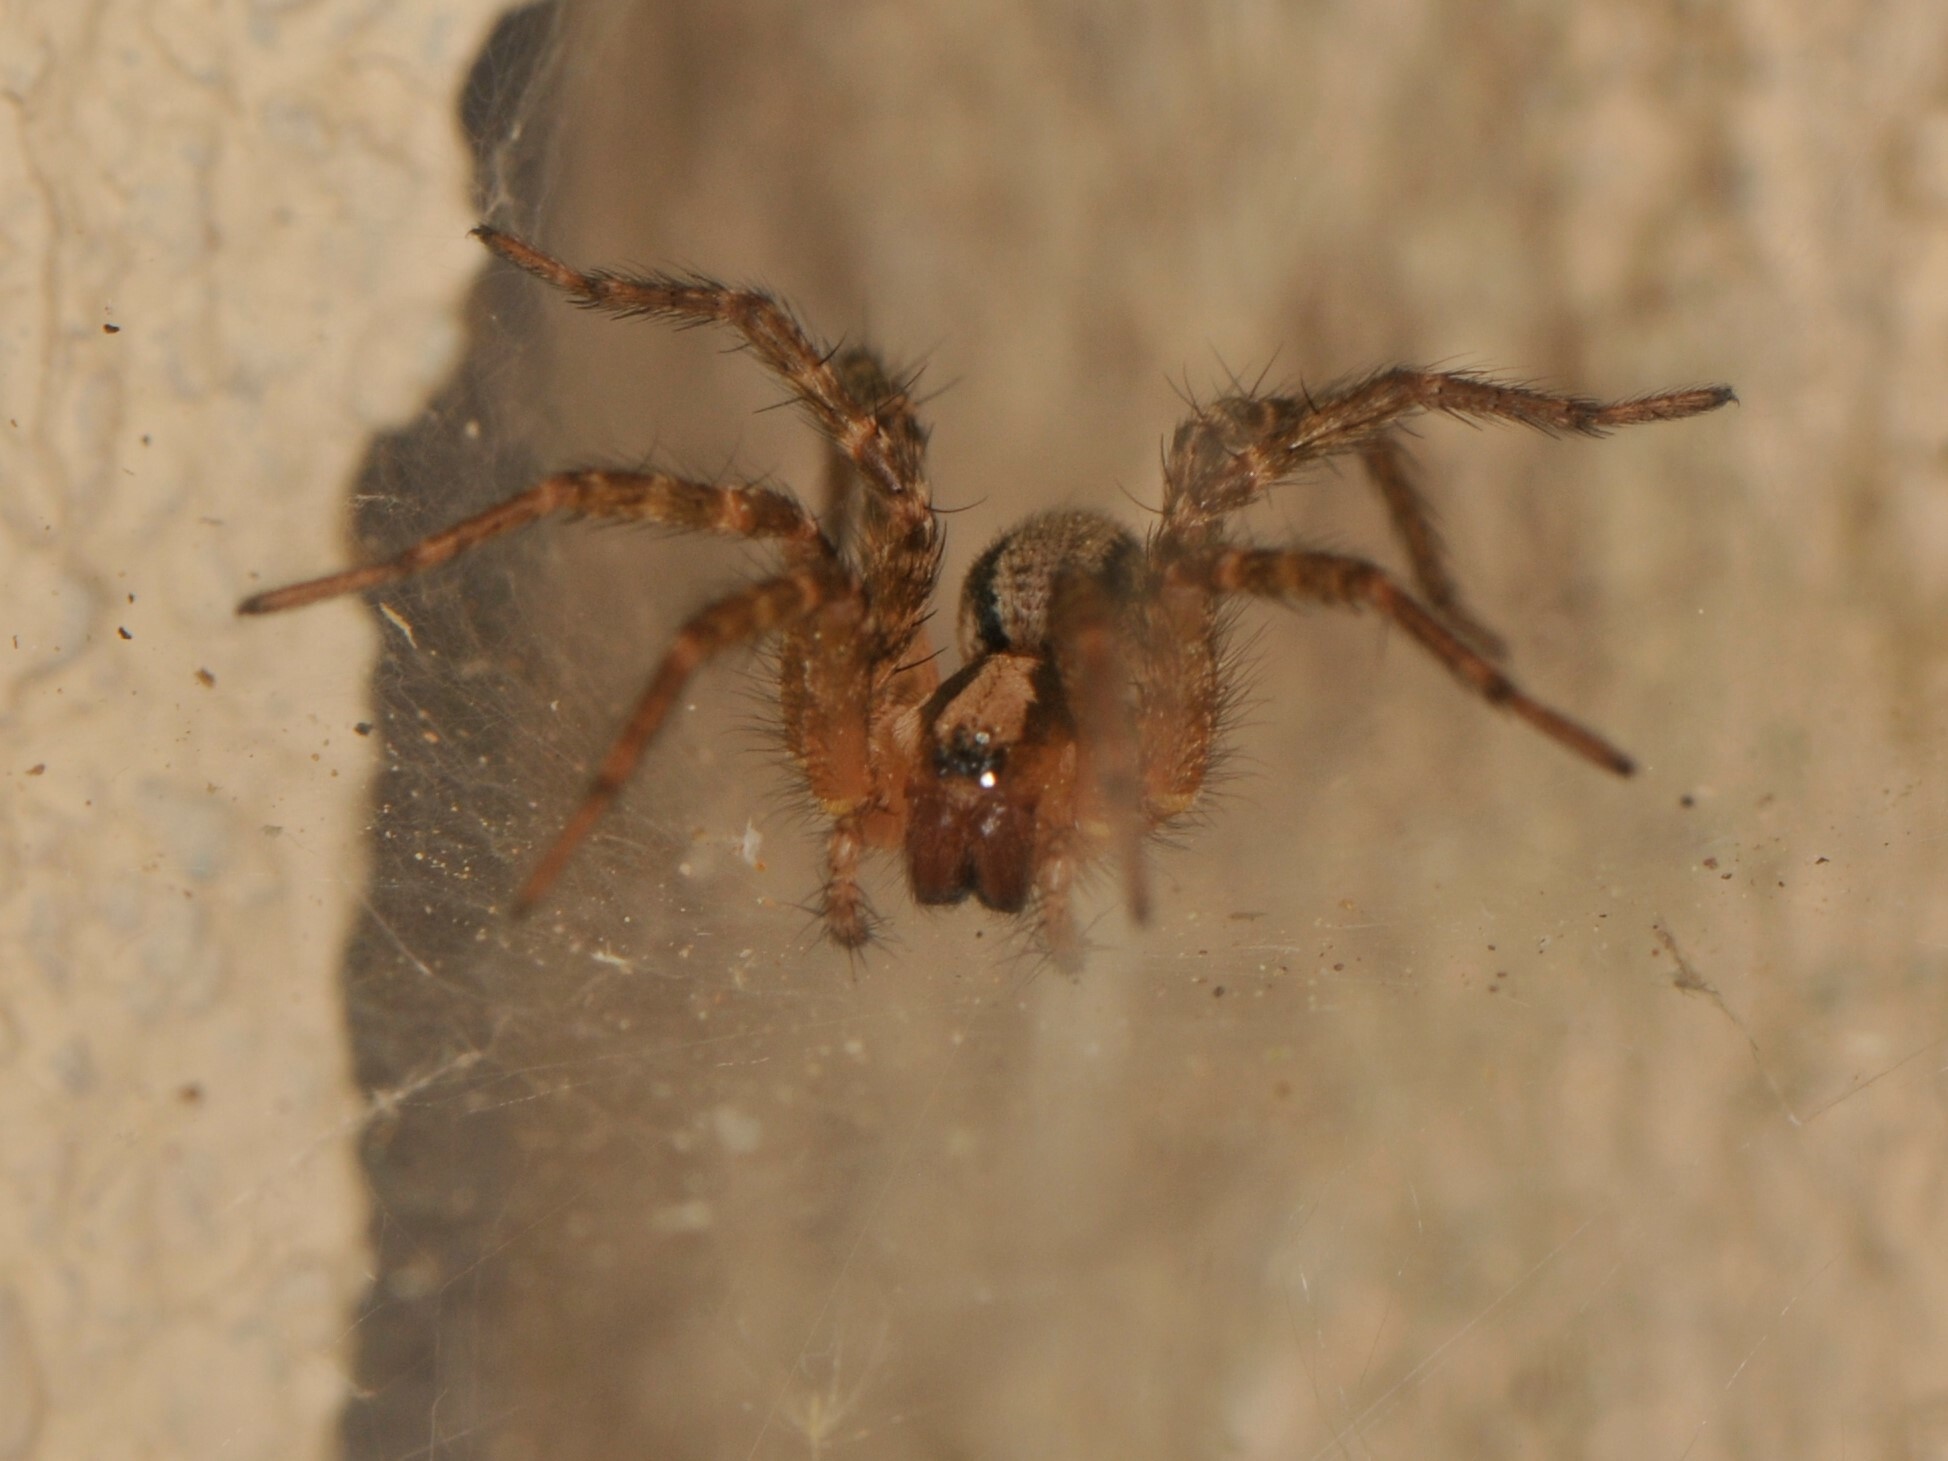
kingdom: Animalia
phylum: Arthropoda
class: Arachnida
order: Araneae
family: Agelenidae
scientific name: Agelenidae
